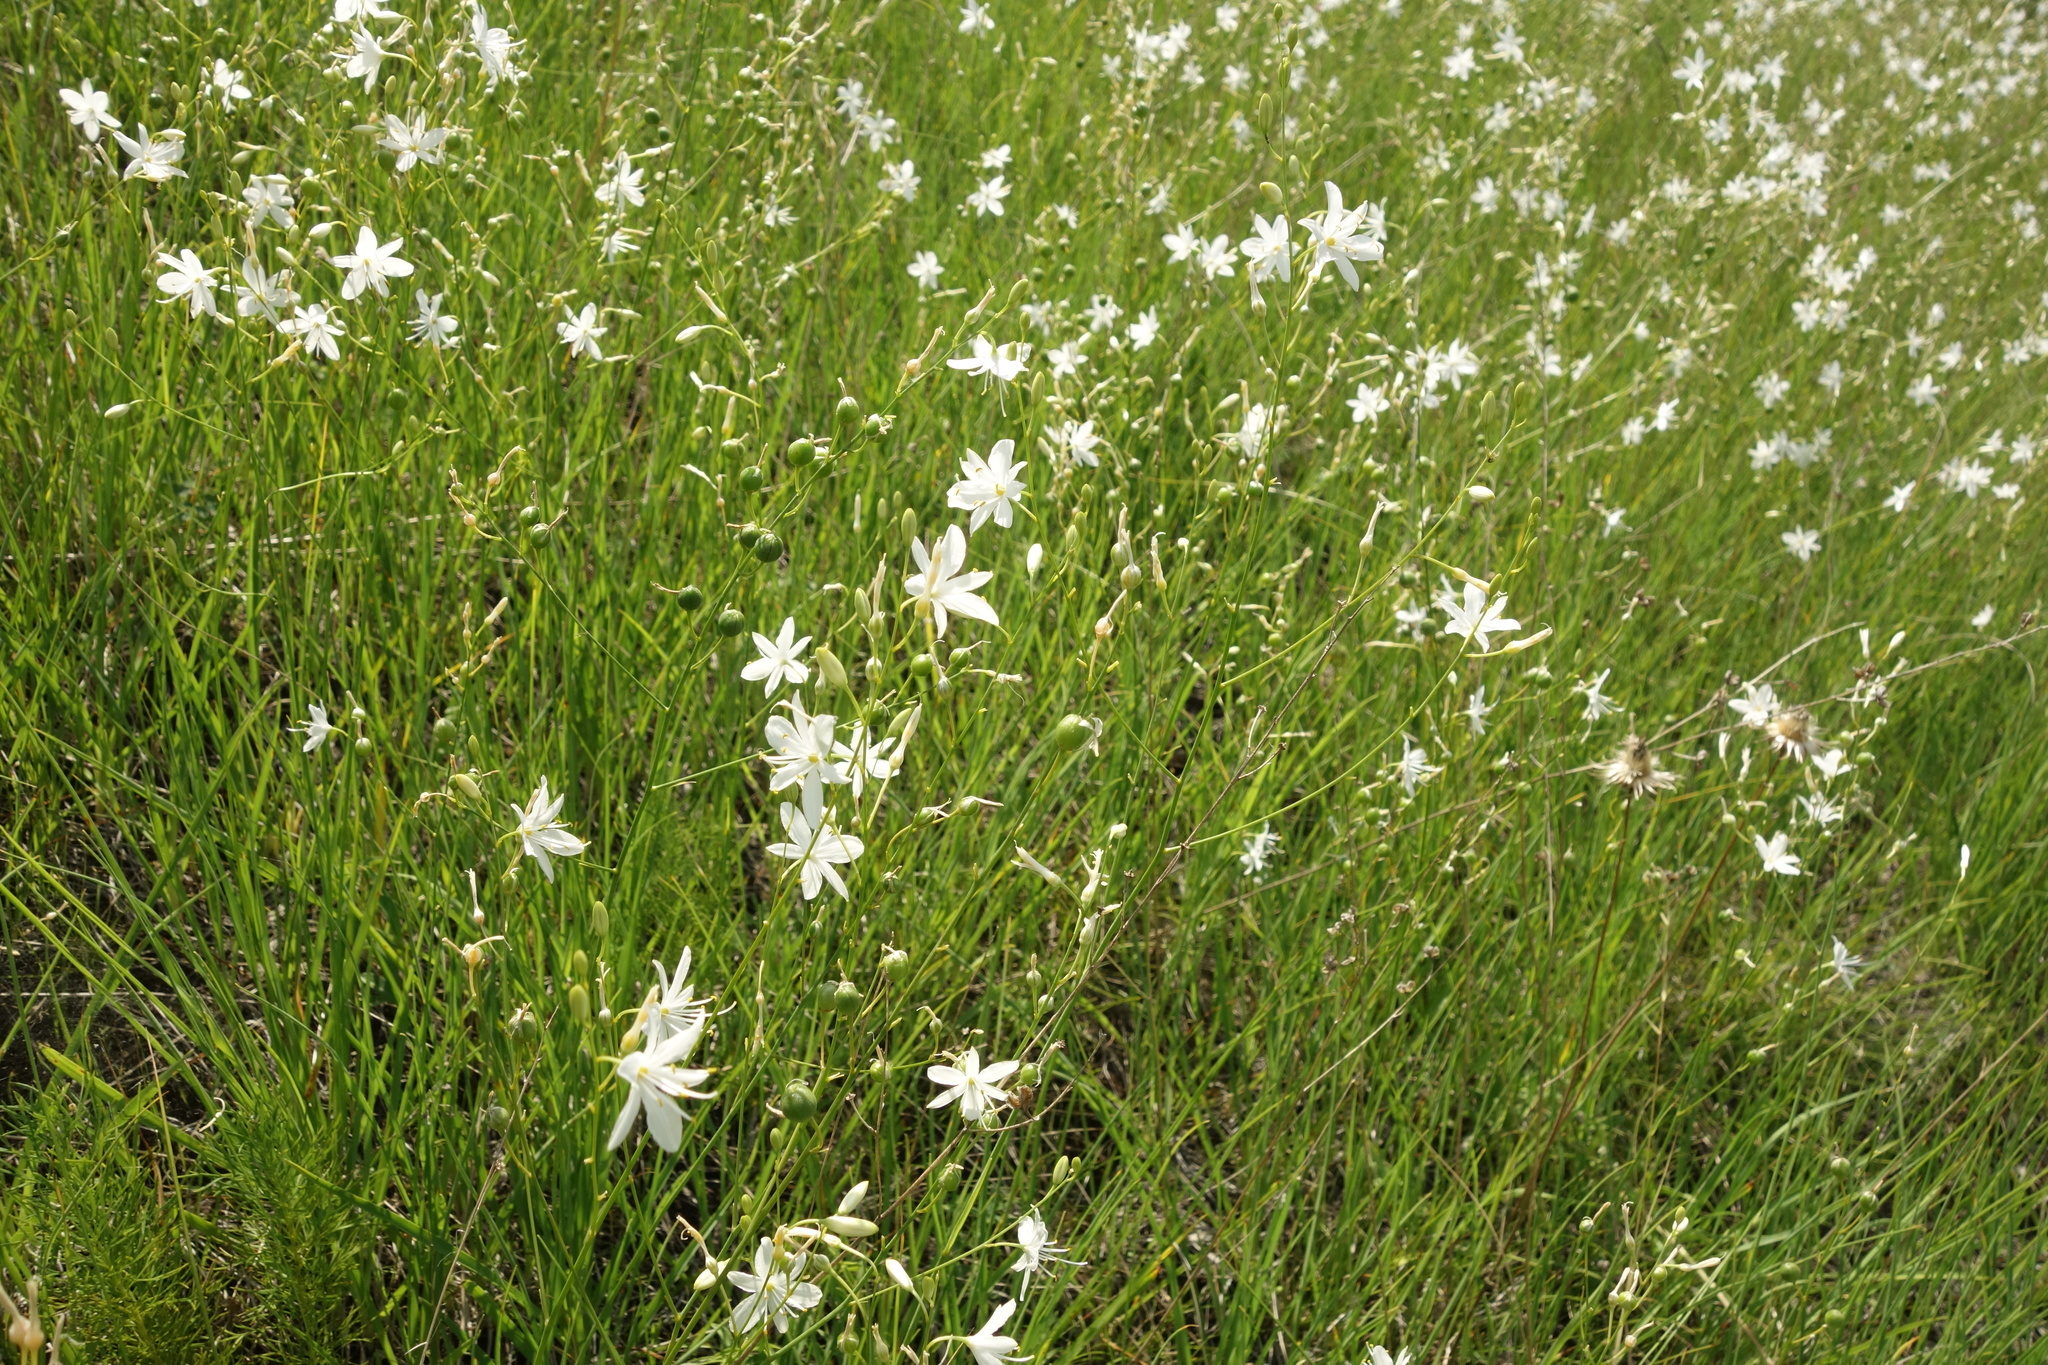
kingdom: Plantae
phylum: Tracheophyta
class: Liliopsida
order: Asparagales
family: Asparagaceae
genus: Anthericum
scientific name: Anthericum ramosum
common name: Branched st. bernard's-lily
